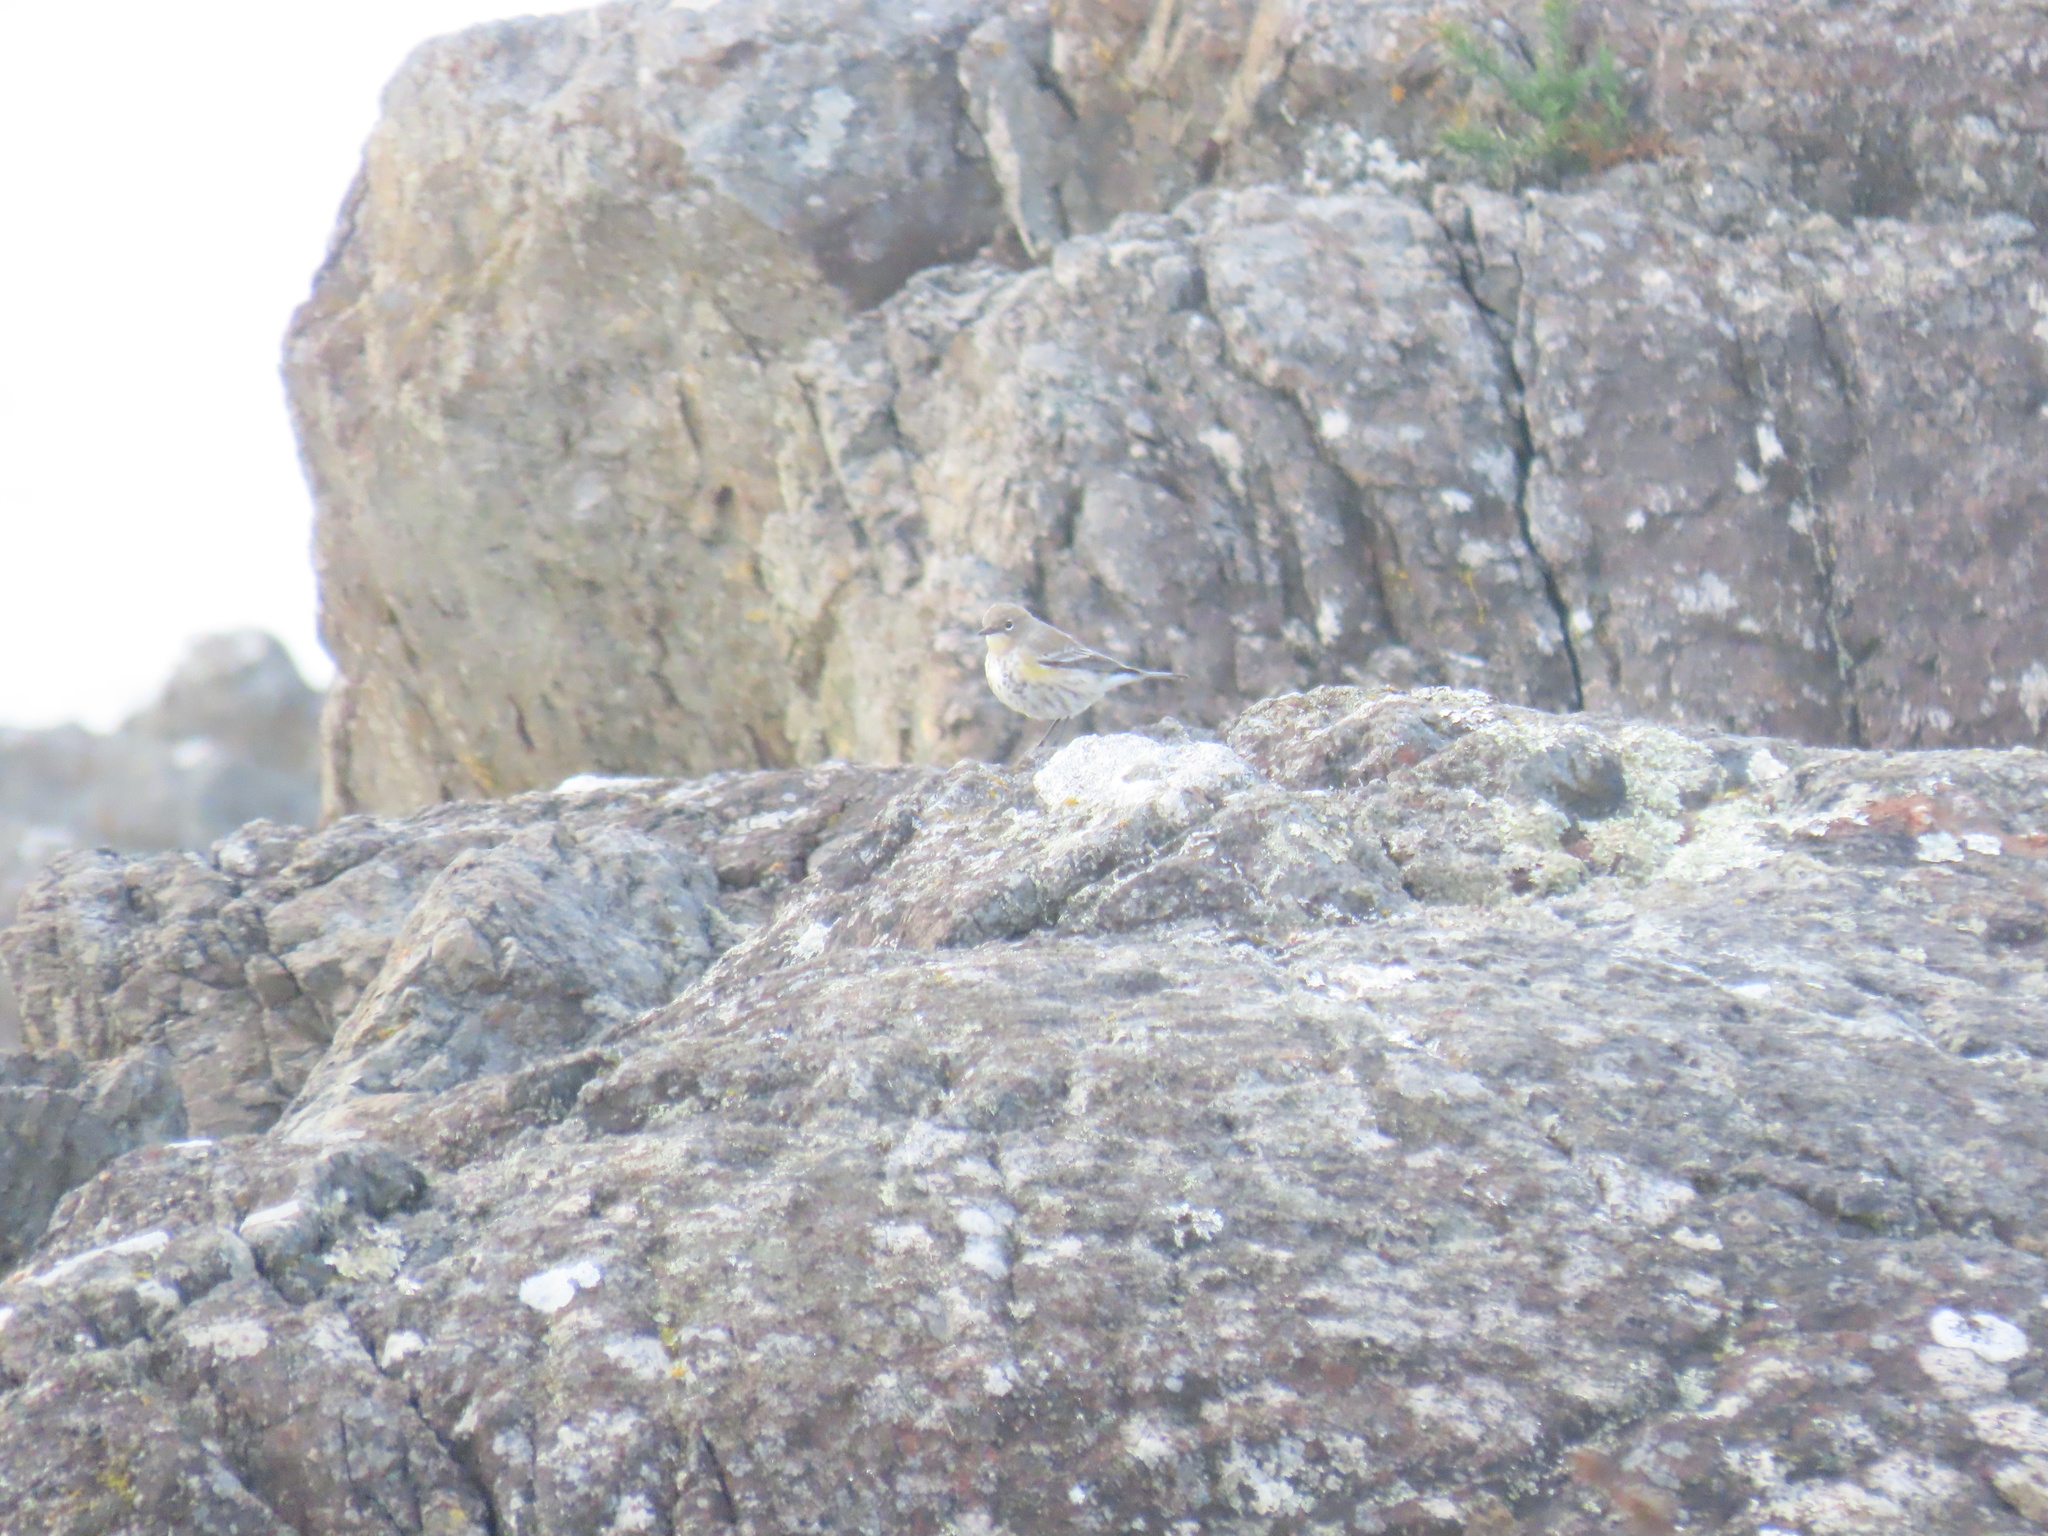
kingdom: Animalia
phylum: Chordata
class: Aves
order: Passeriformes
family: Parulidae
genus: Setophaga
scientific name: Setophaga coronata
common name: Myrtle warbler
